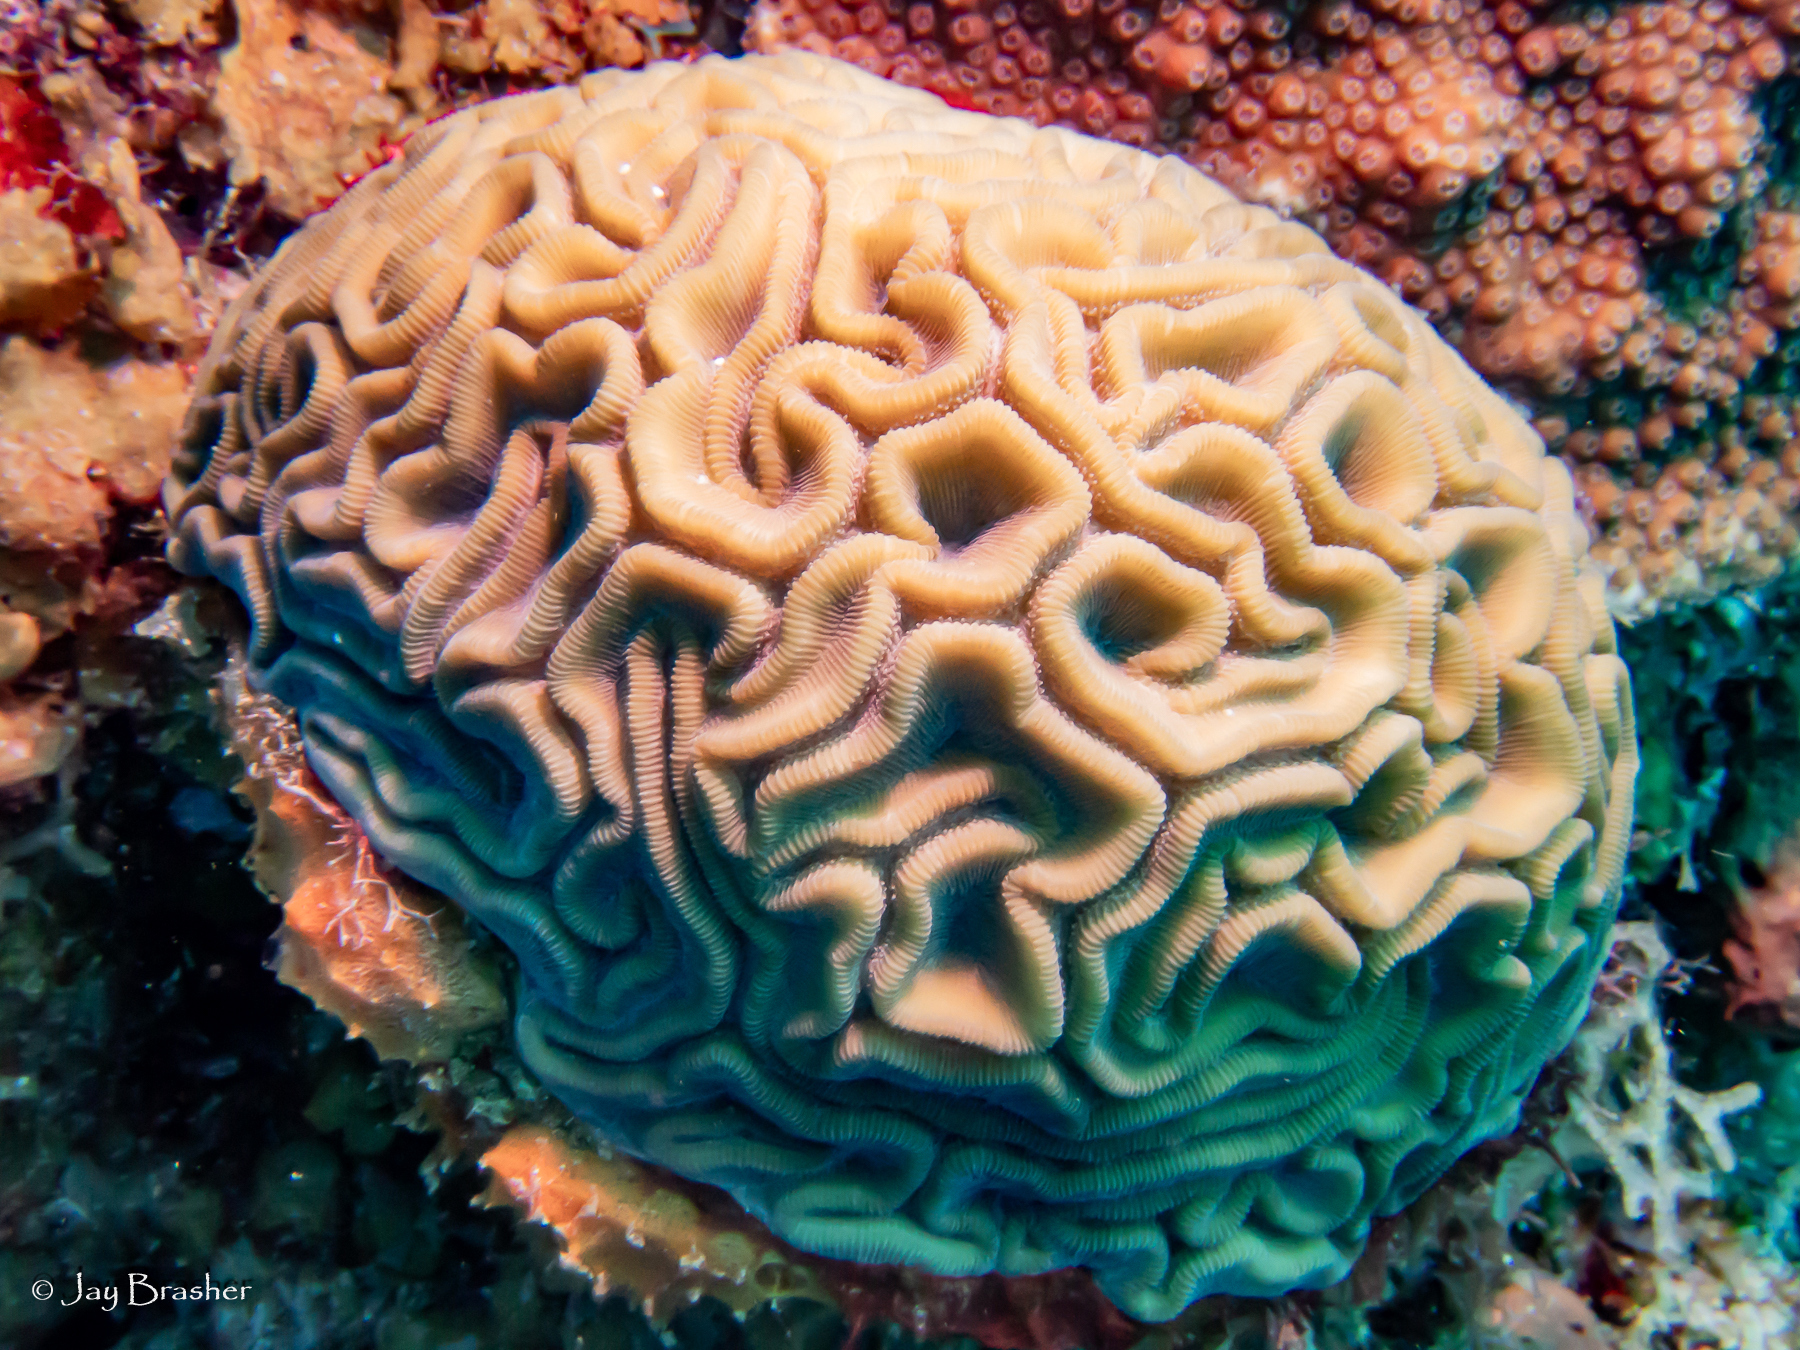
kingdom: Animalia
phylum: Cnidaria
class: Anthozoa
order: Scleractinia
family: Faviidae
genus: Diploria
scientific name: Diploria labyrinthiformis
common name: Grooved brain coral
